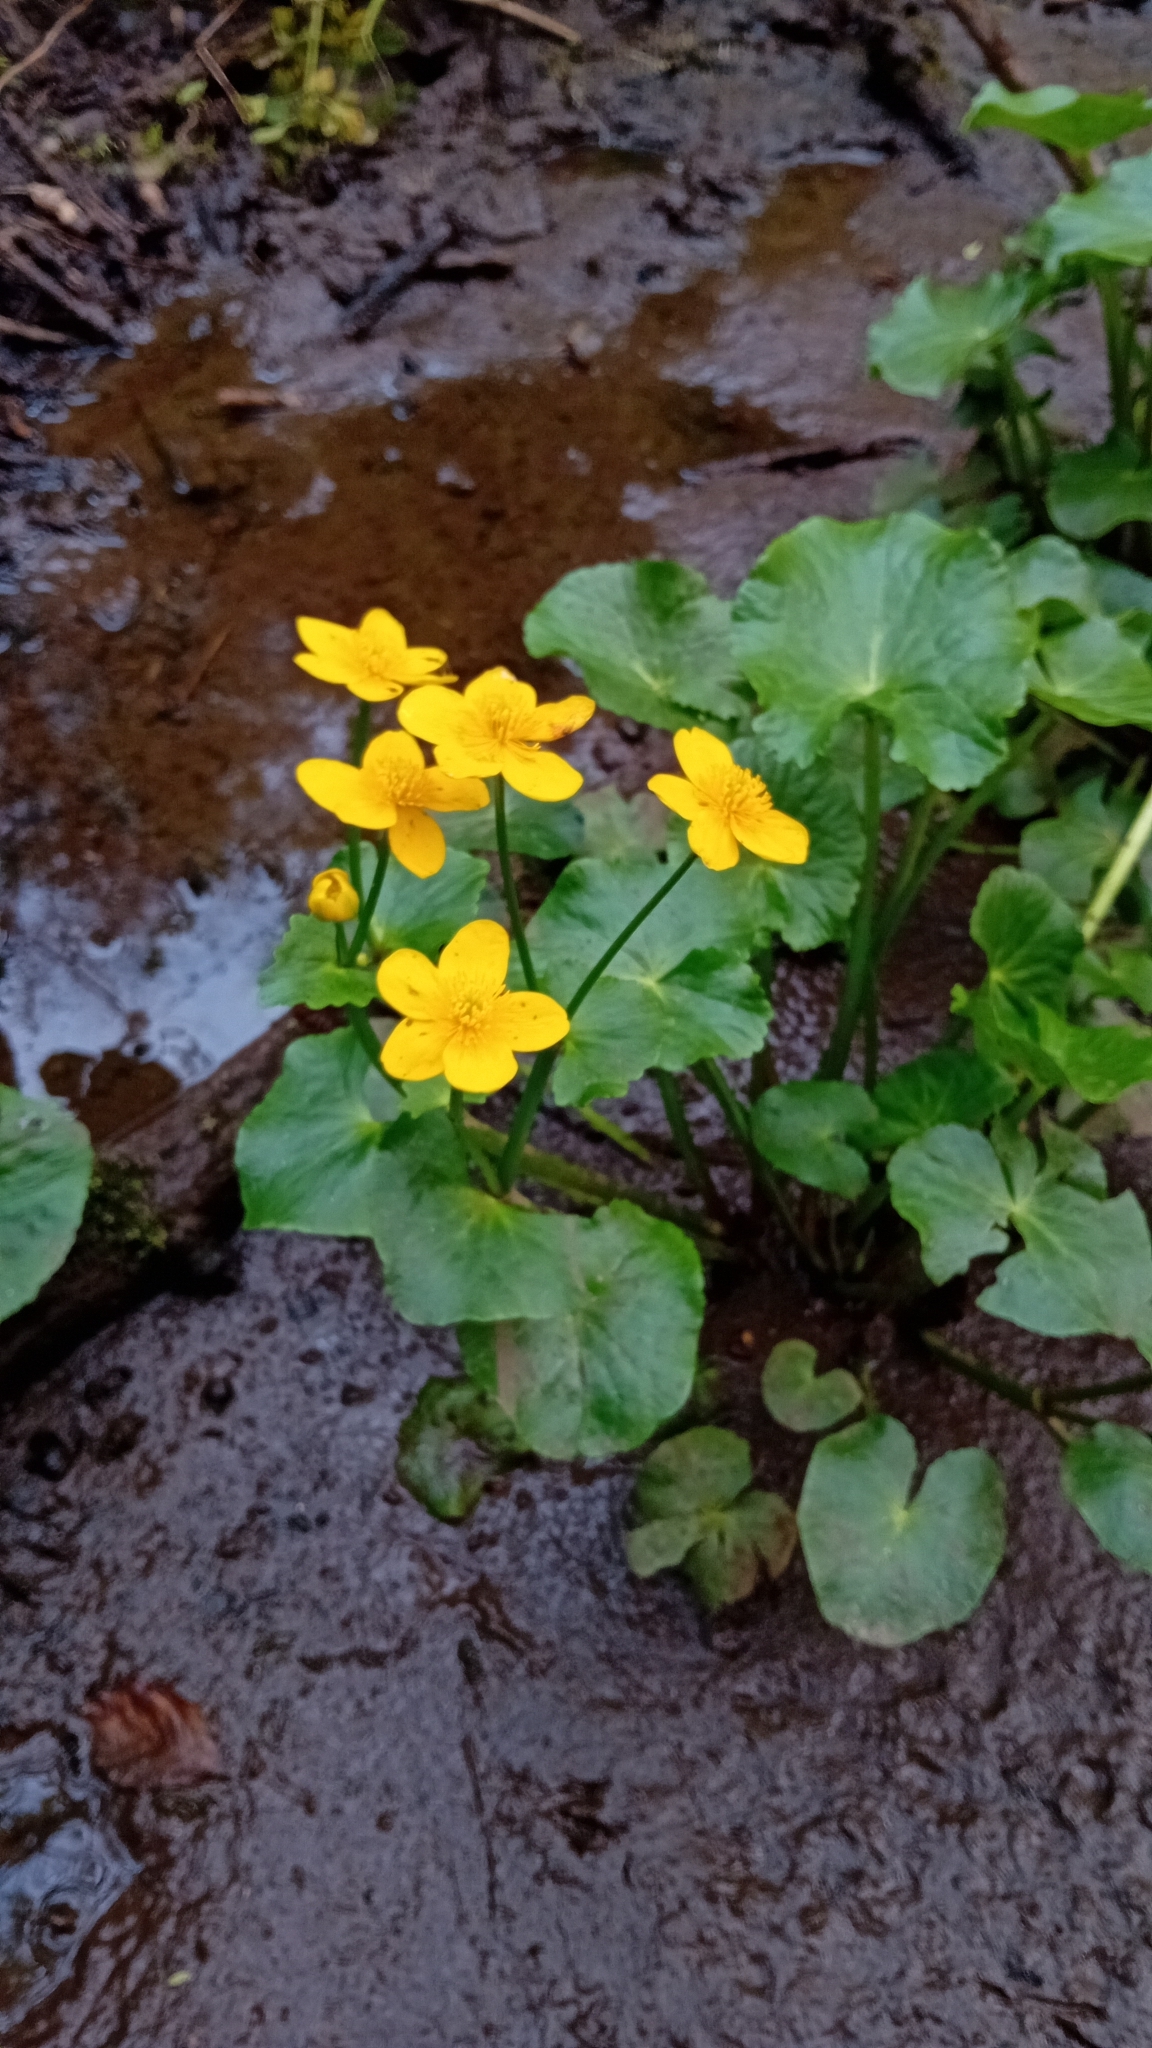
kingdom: Plantae
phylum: Tracheophyta
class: Magnoliopsida
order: Ranunculales
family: Ranunculaceae
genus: Caltha
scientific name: Caltha palustris
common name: Marsh marigold
